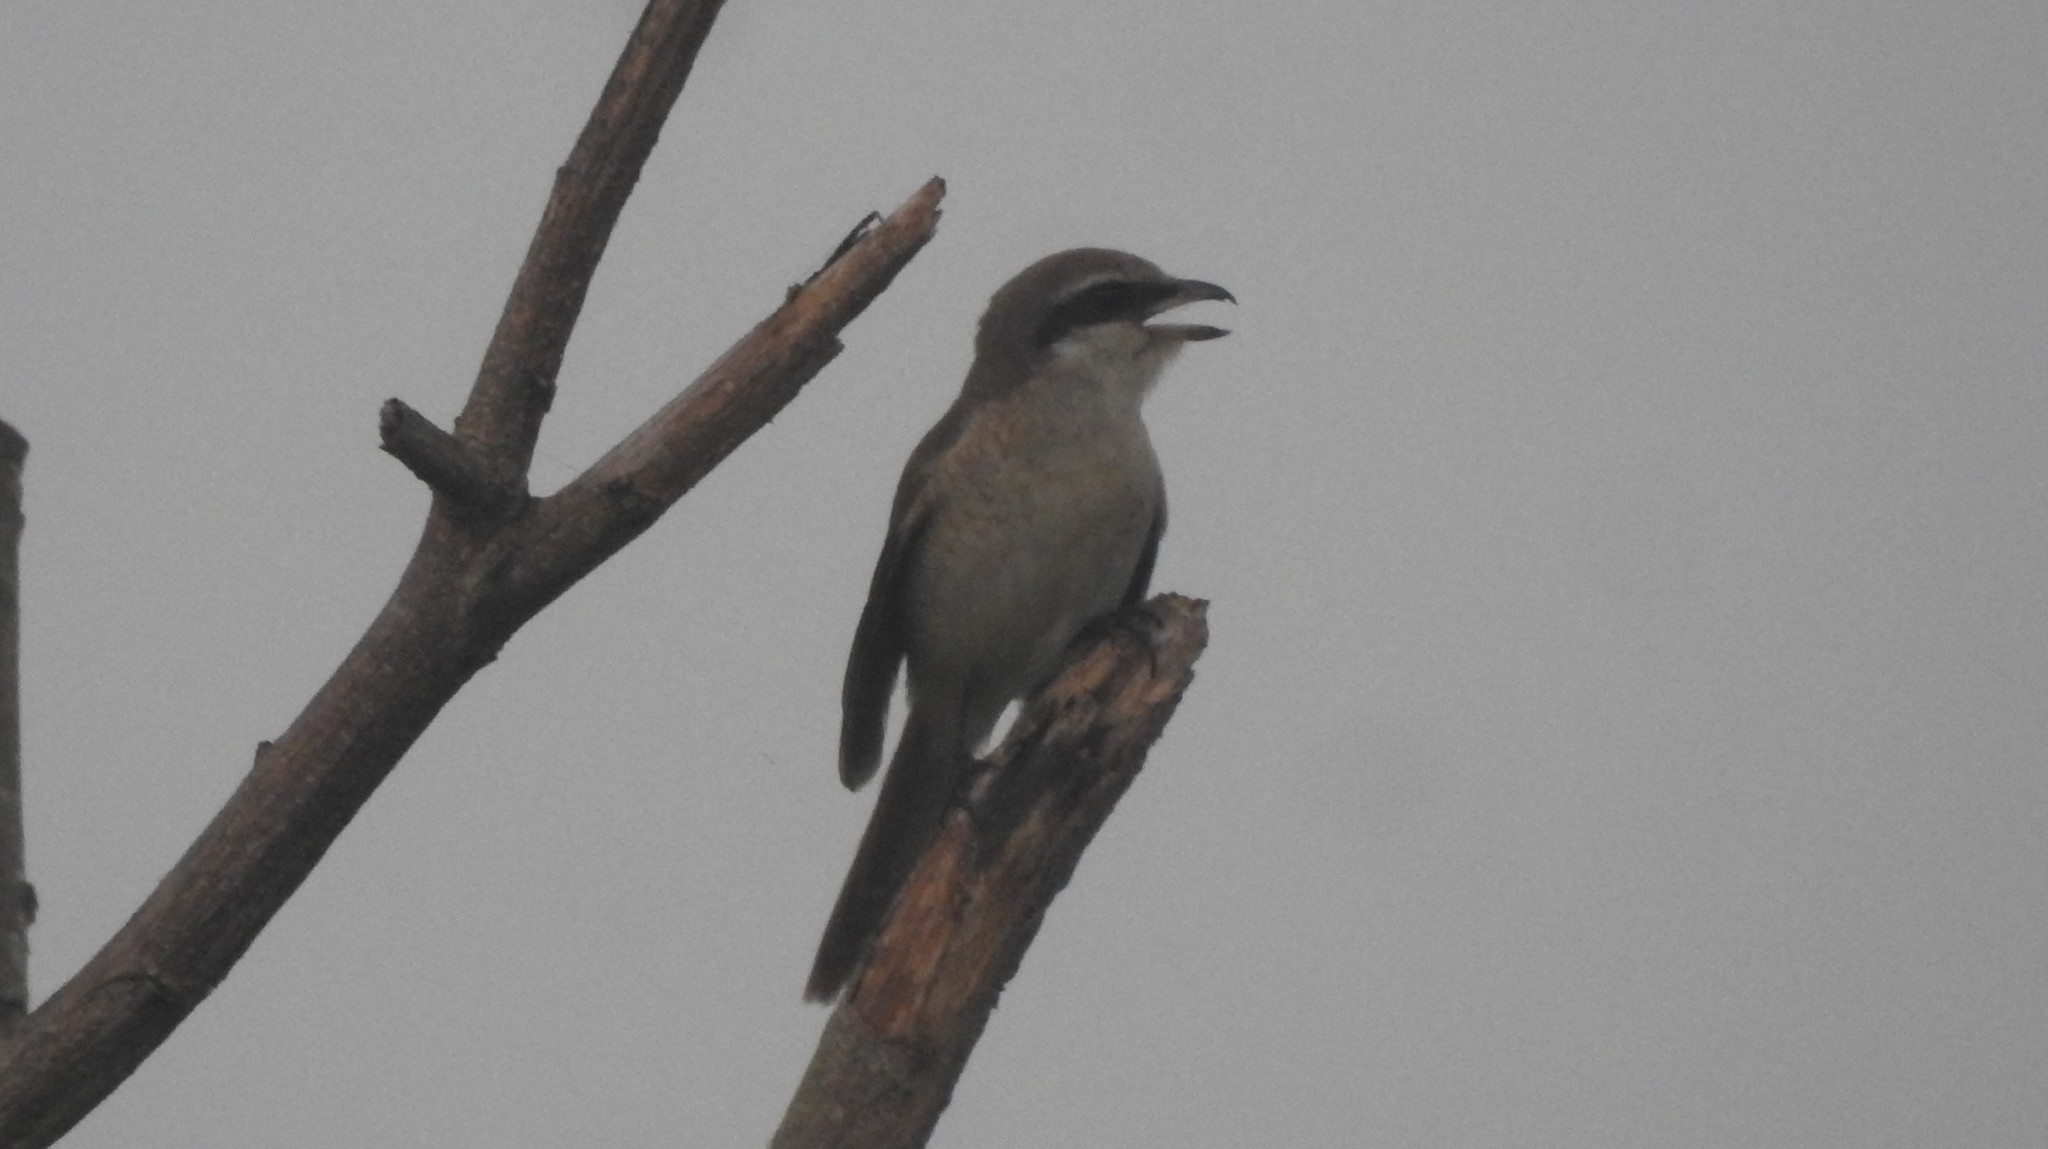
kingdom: Animalia
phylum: Chordata
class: Aves
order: Passeriformes
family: Laniidae
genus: Lanius
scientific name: Lanius cristatus
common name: Brown shrike
